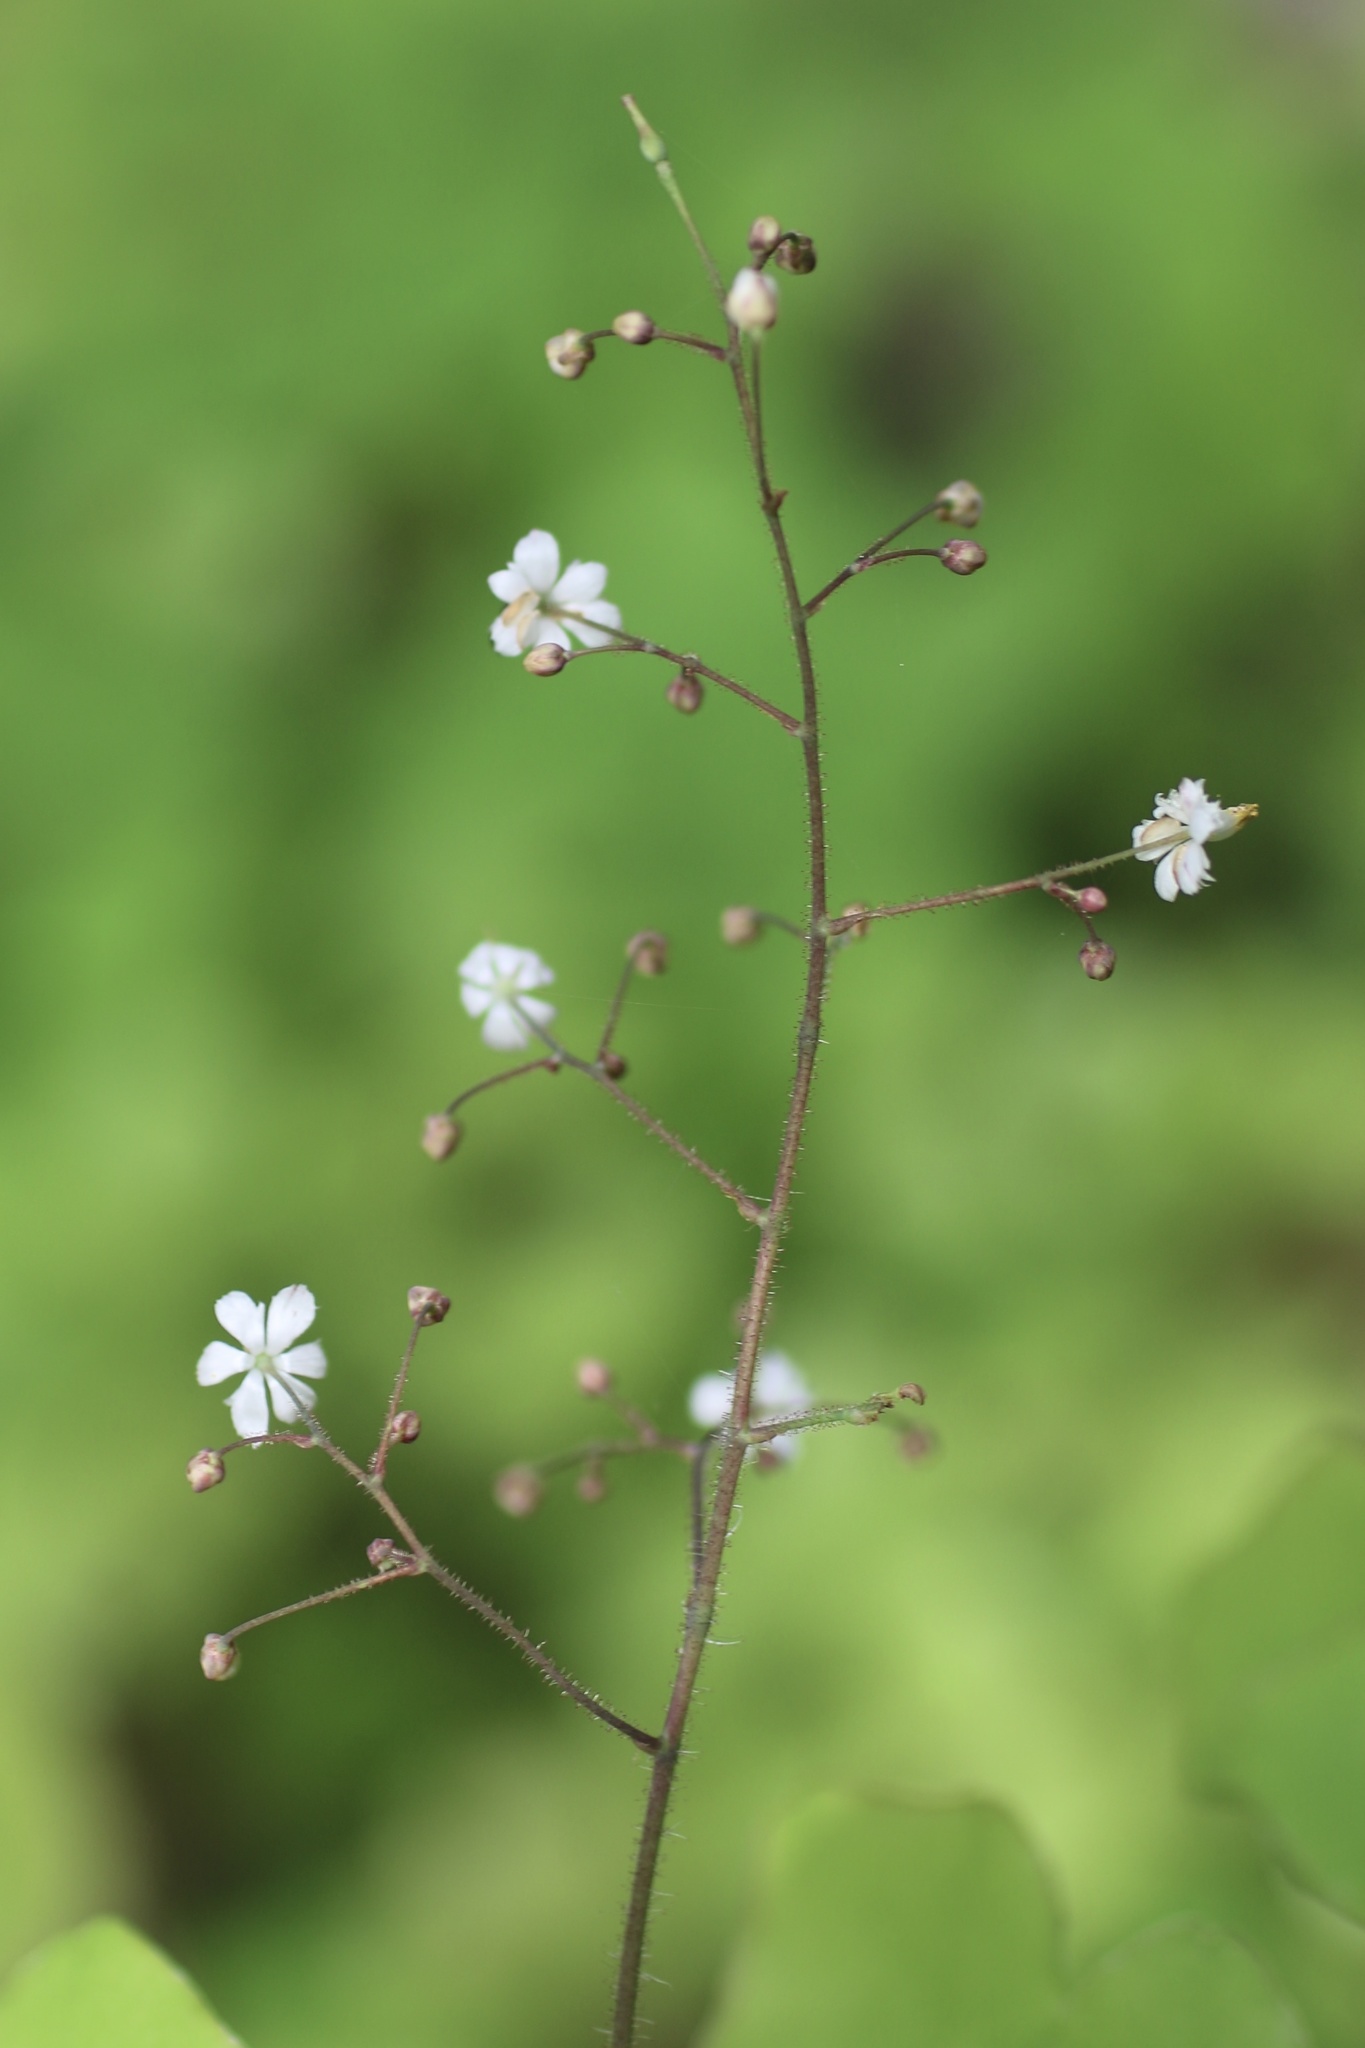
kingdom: Plantae
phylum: Tracheophyta
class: Magnoliopsida
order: Ranunculales
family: Berberidaceae
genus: Vancouveria
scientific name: Vancouveria planipetala
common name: Redwood-ivy
